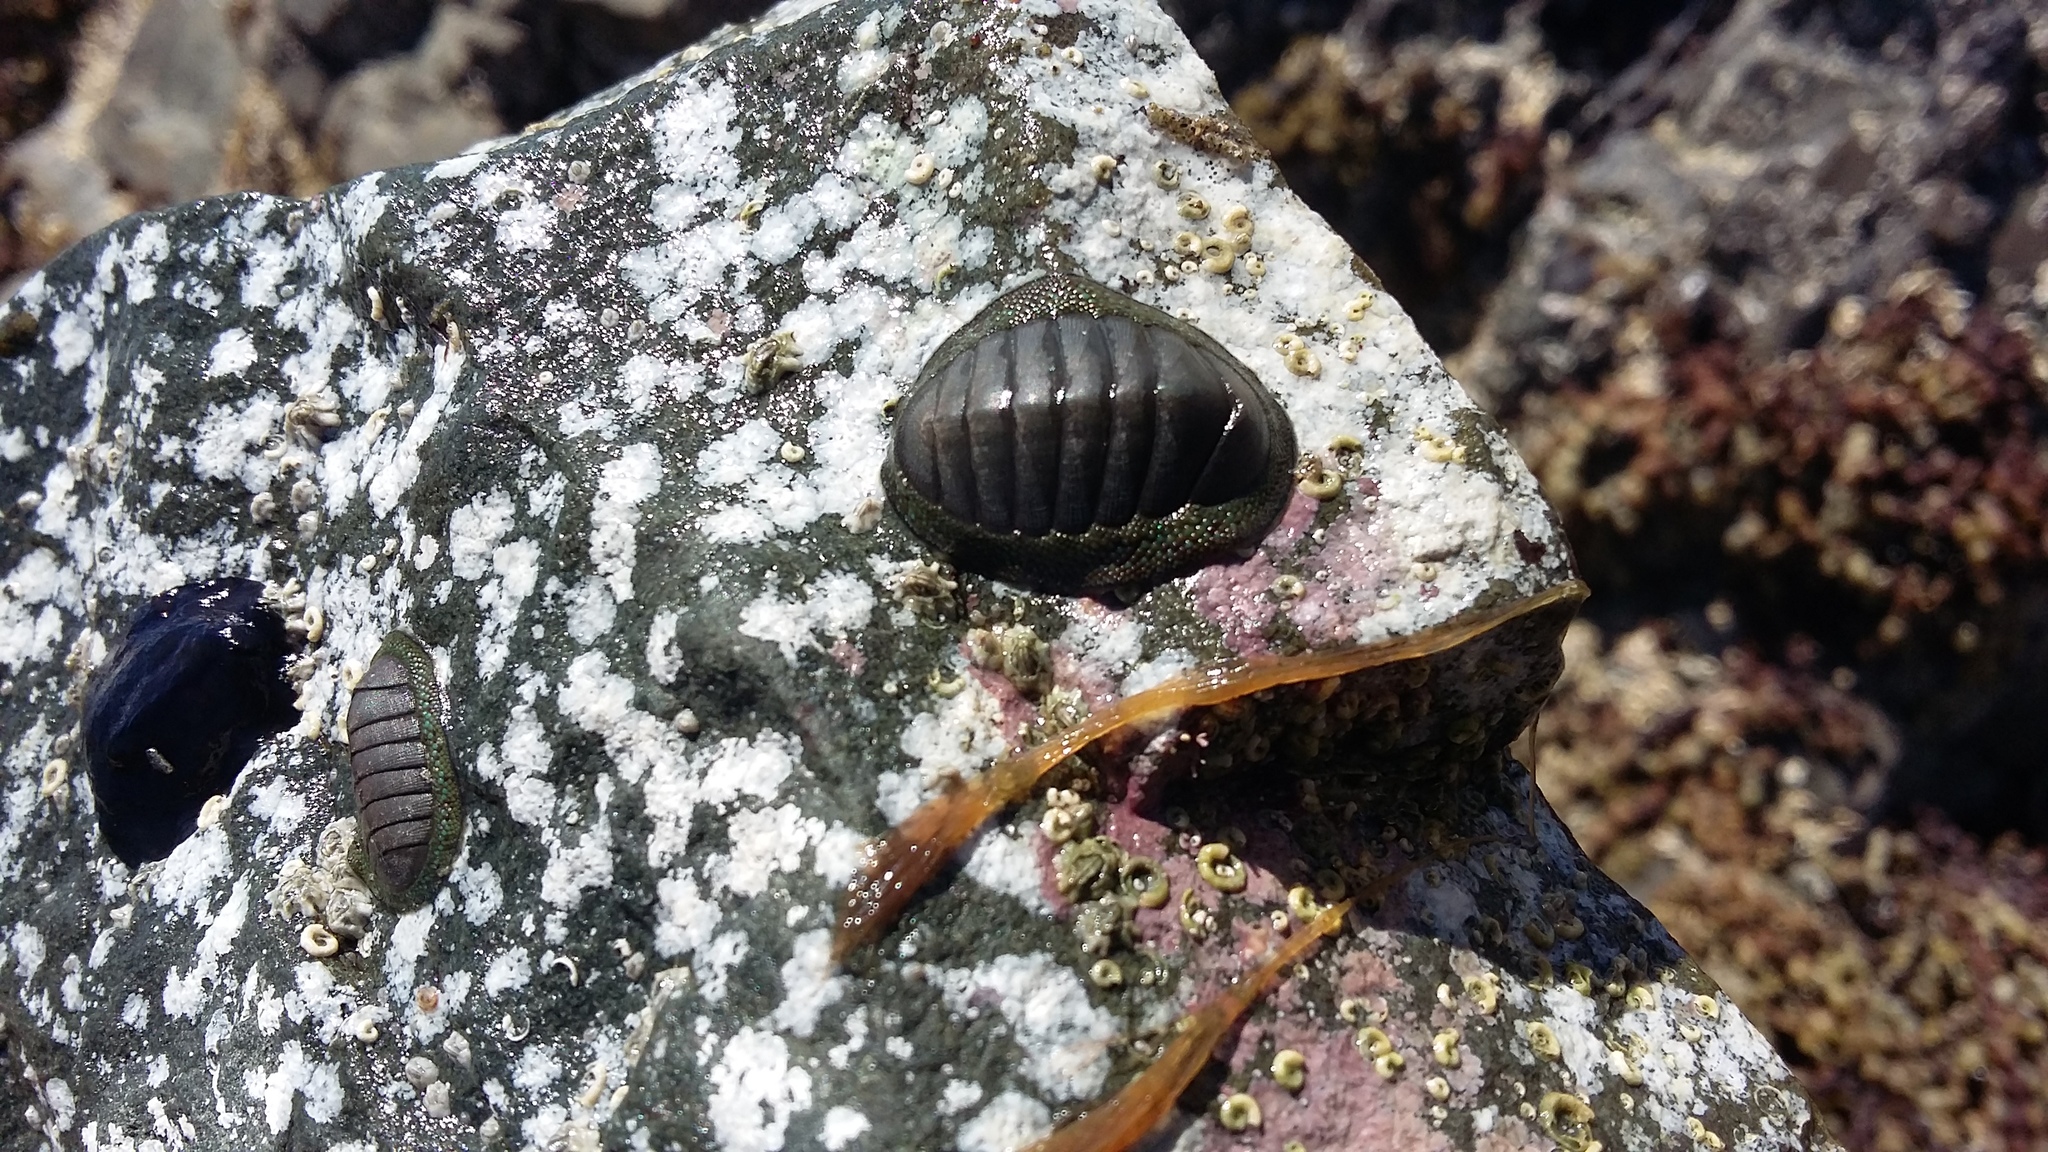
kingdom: Animalia
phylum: Mollusca
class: Polyplacophora
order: Chitonida
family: Chitonidae
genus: Chiton
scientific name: Chiton glaucus
